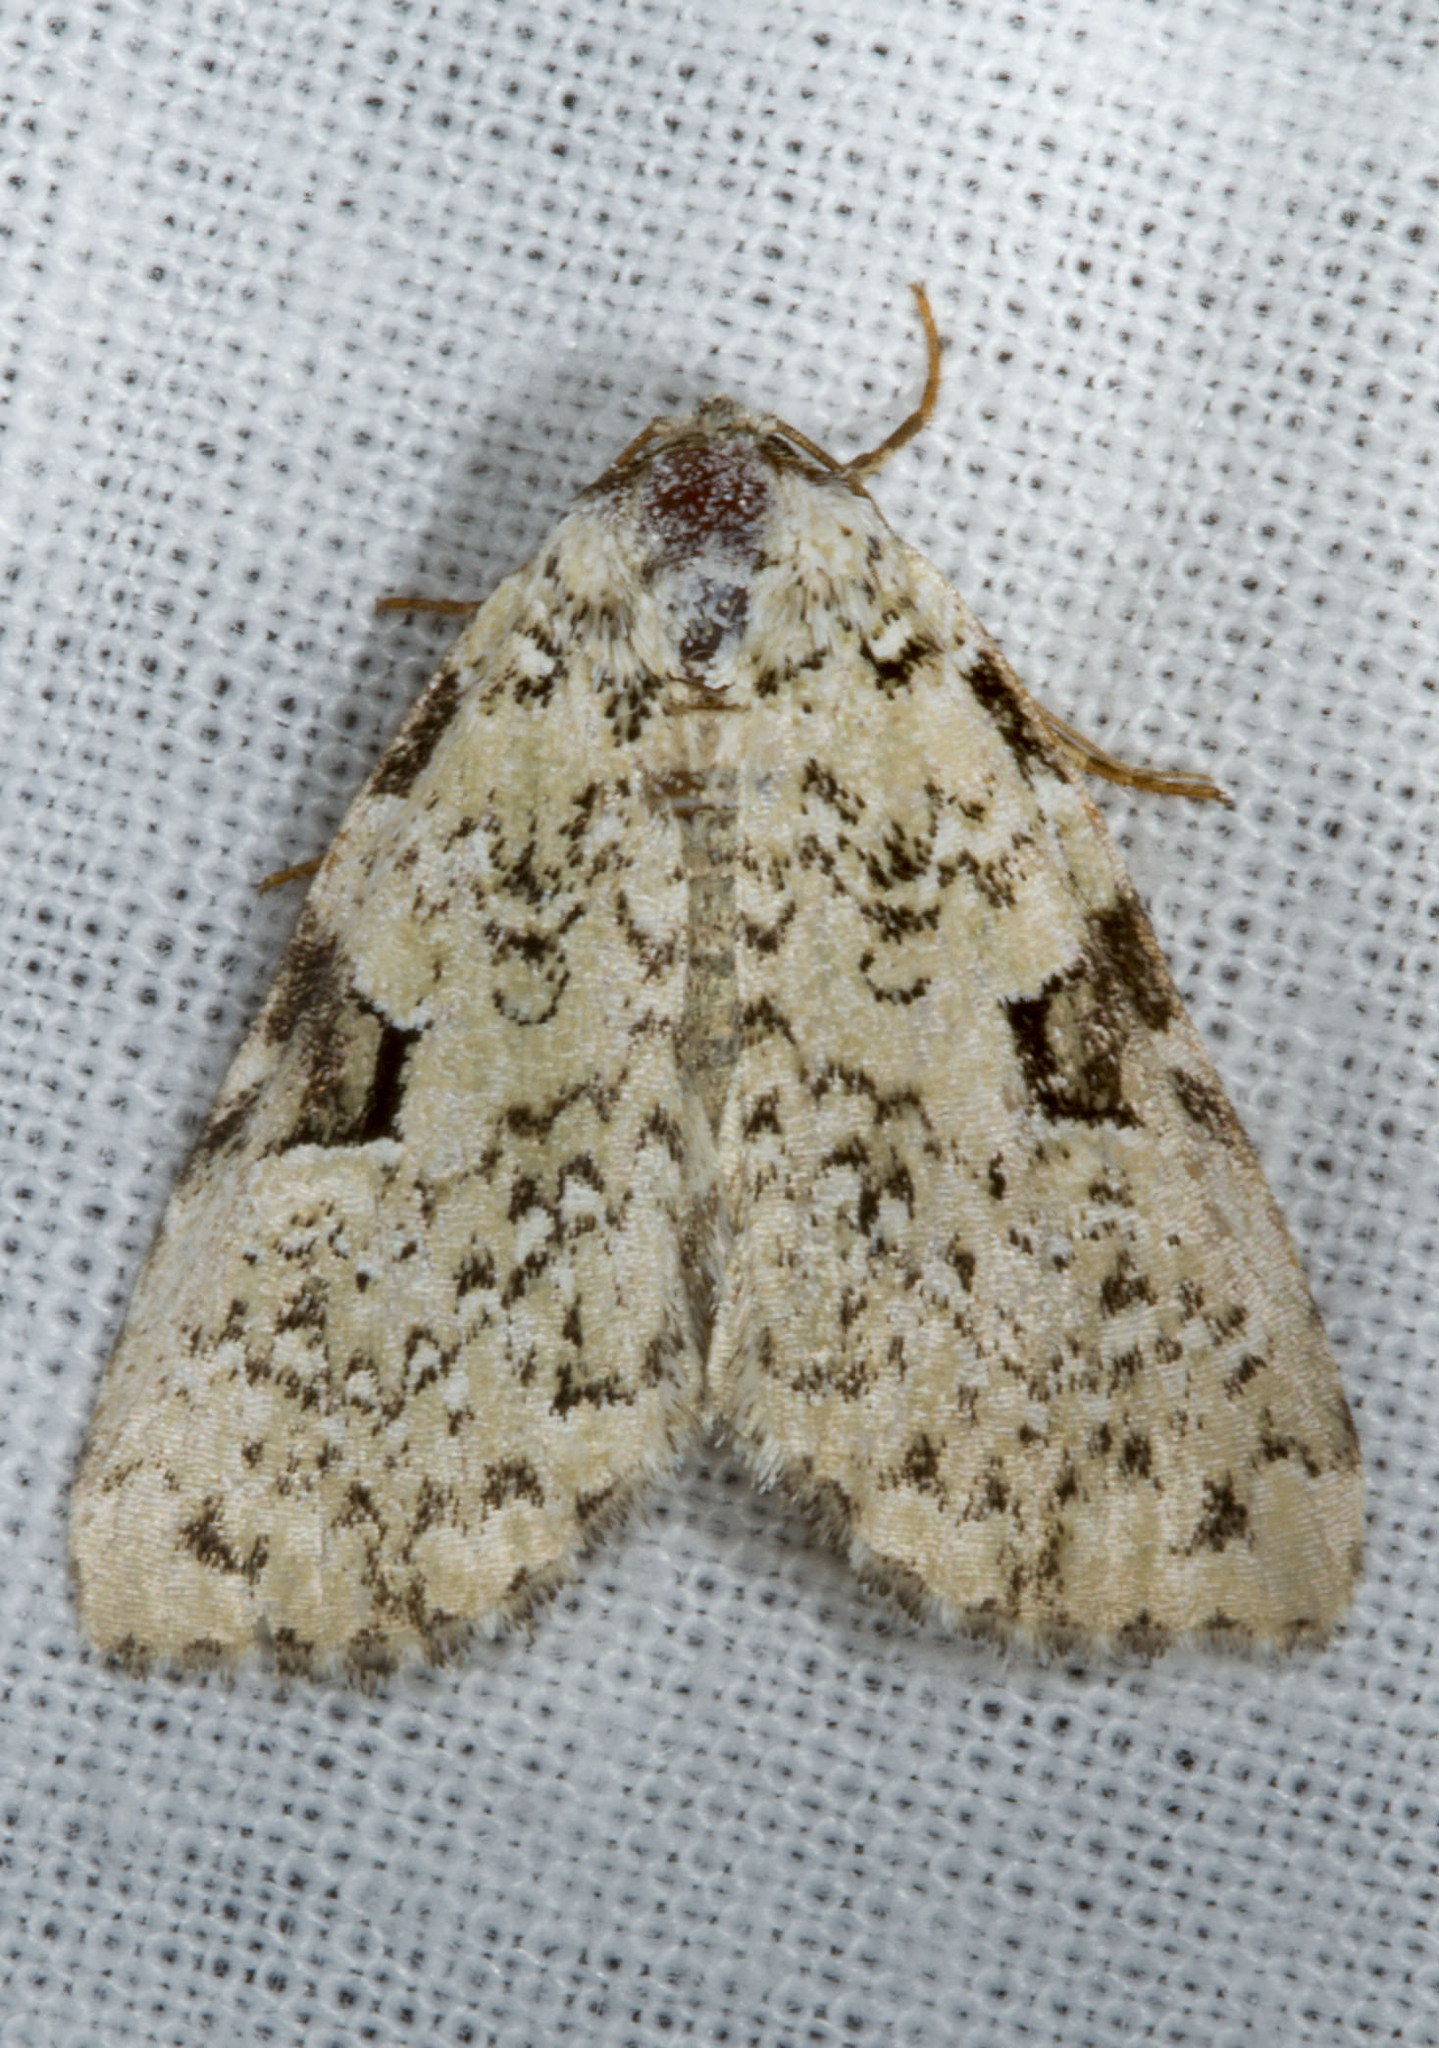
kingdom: Animalia
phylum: Arthropoda
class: Insecta
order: Lepidoptera
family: Noctuidae
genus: Leuconycta
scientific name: Leuconycta diphteroides
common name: Green leuconycta moth
